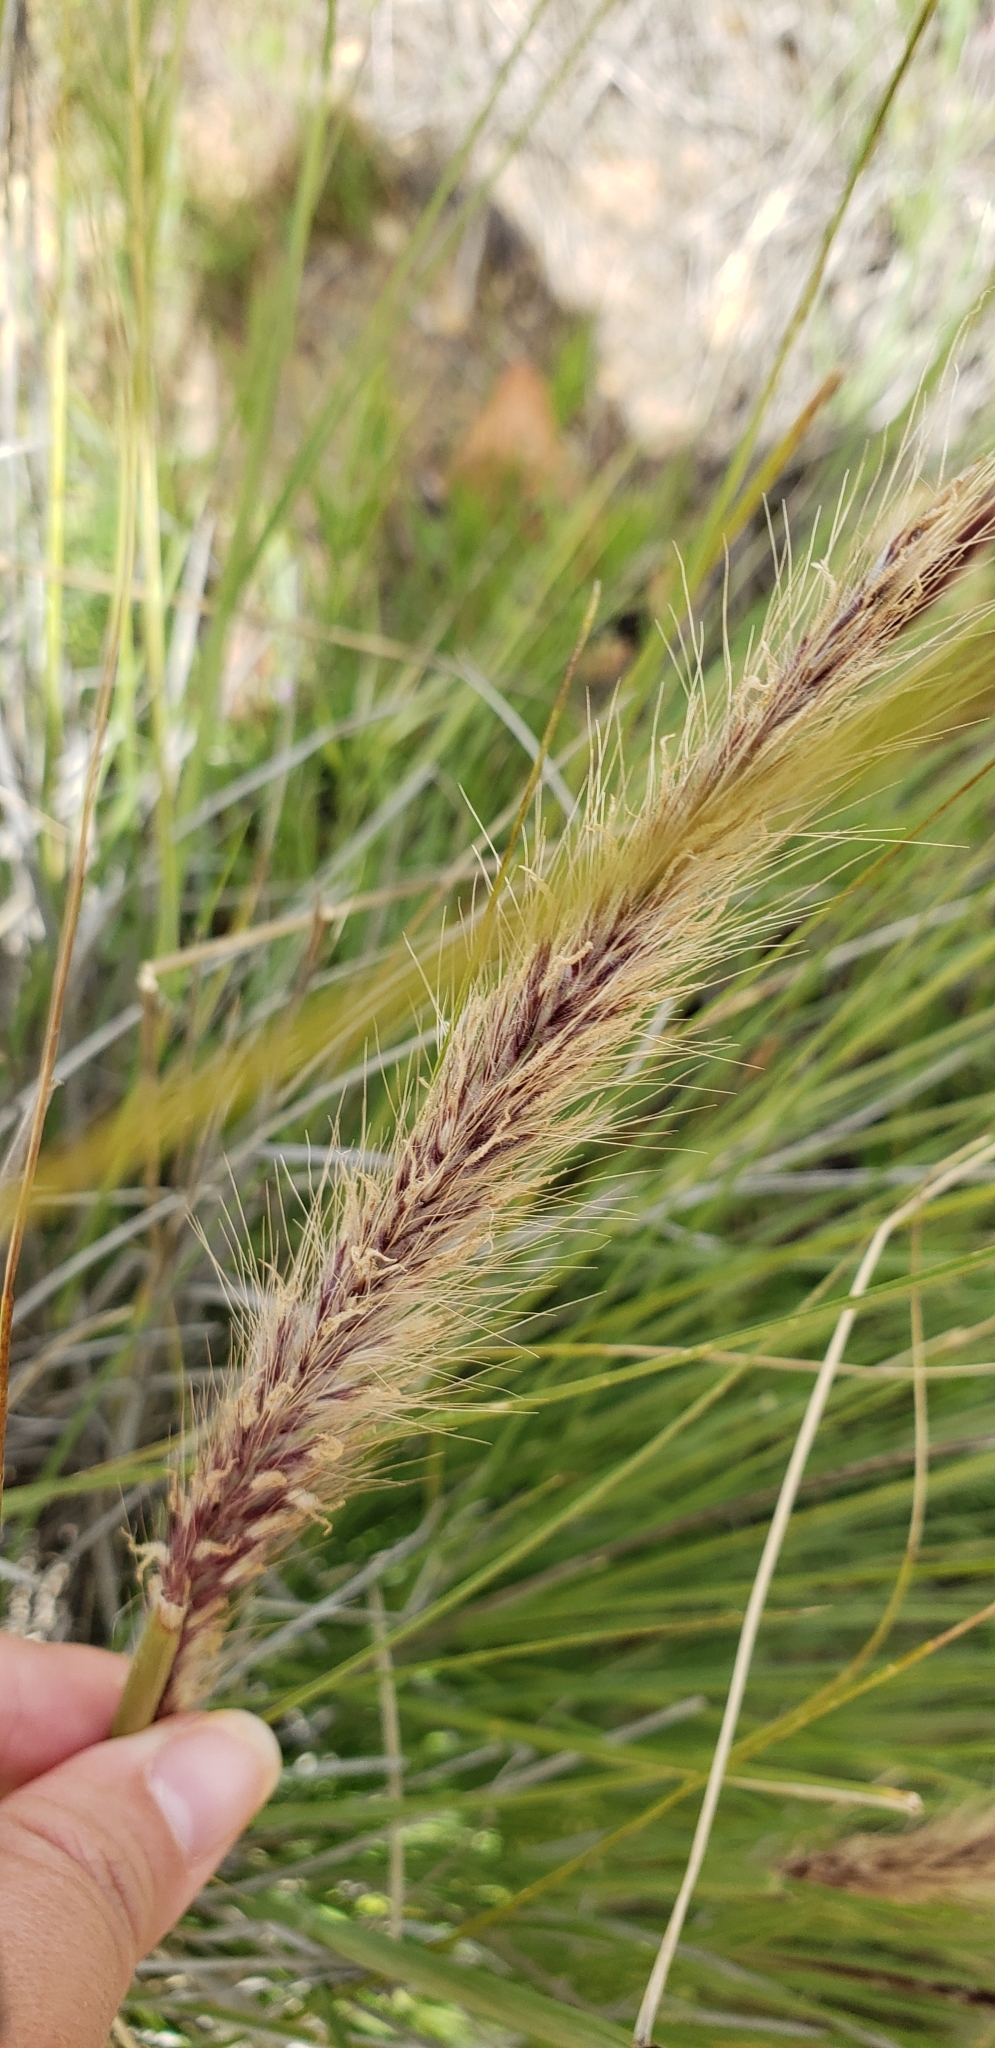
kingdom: Plantae
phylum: Tracheophyta
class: Liliopsida
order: Poales
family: Poaceae
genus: Cenchrus
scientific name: Cenchrus setaceus
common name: Crimson fountaingrass
